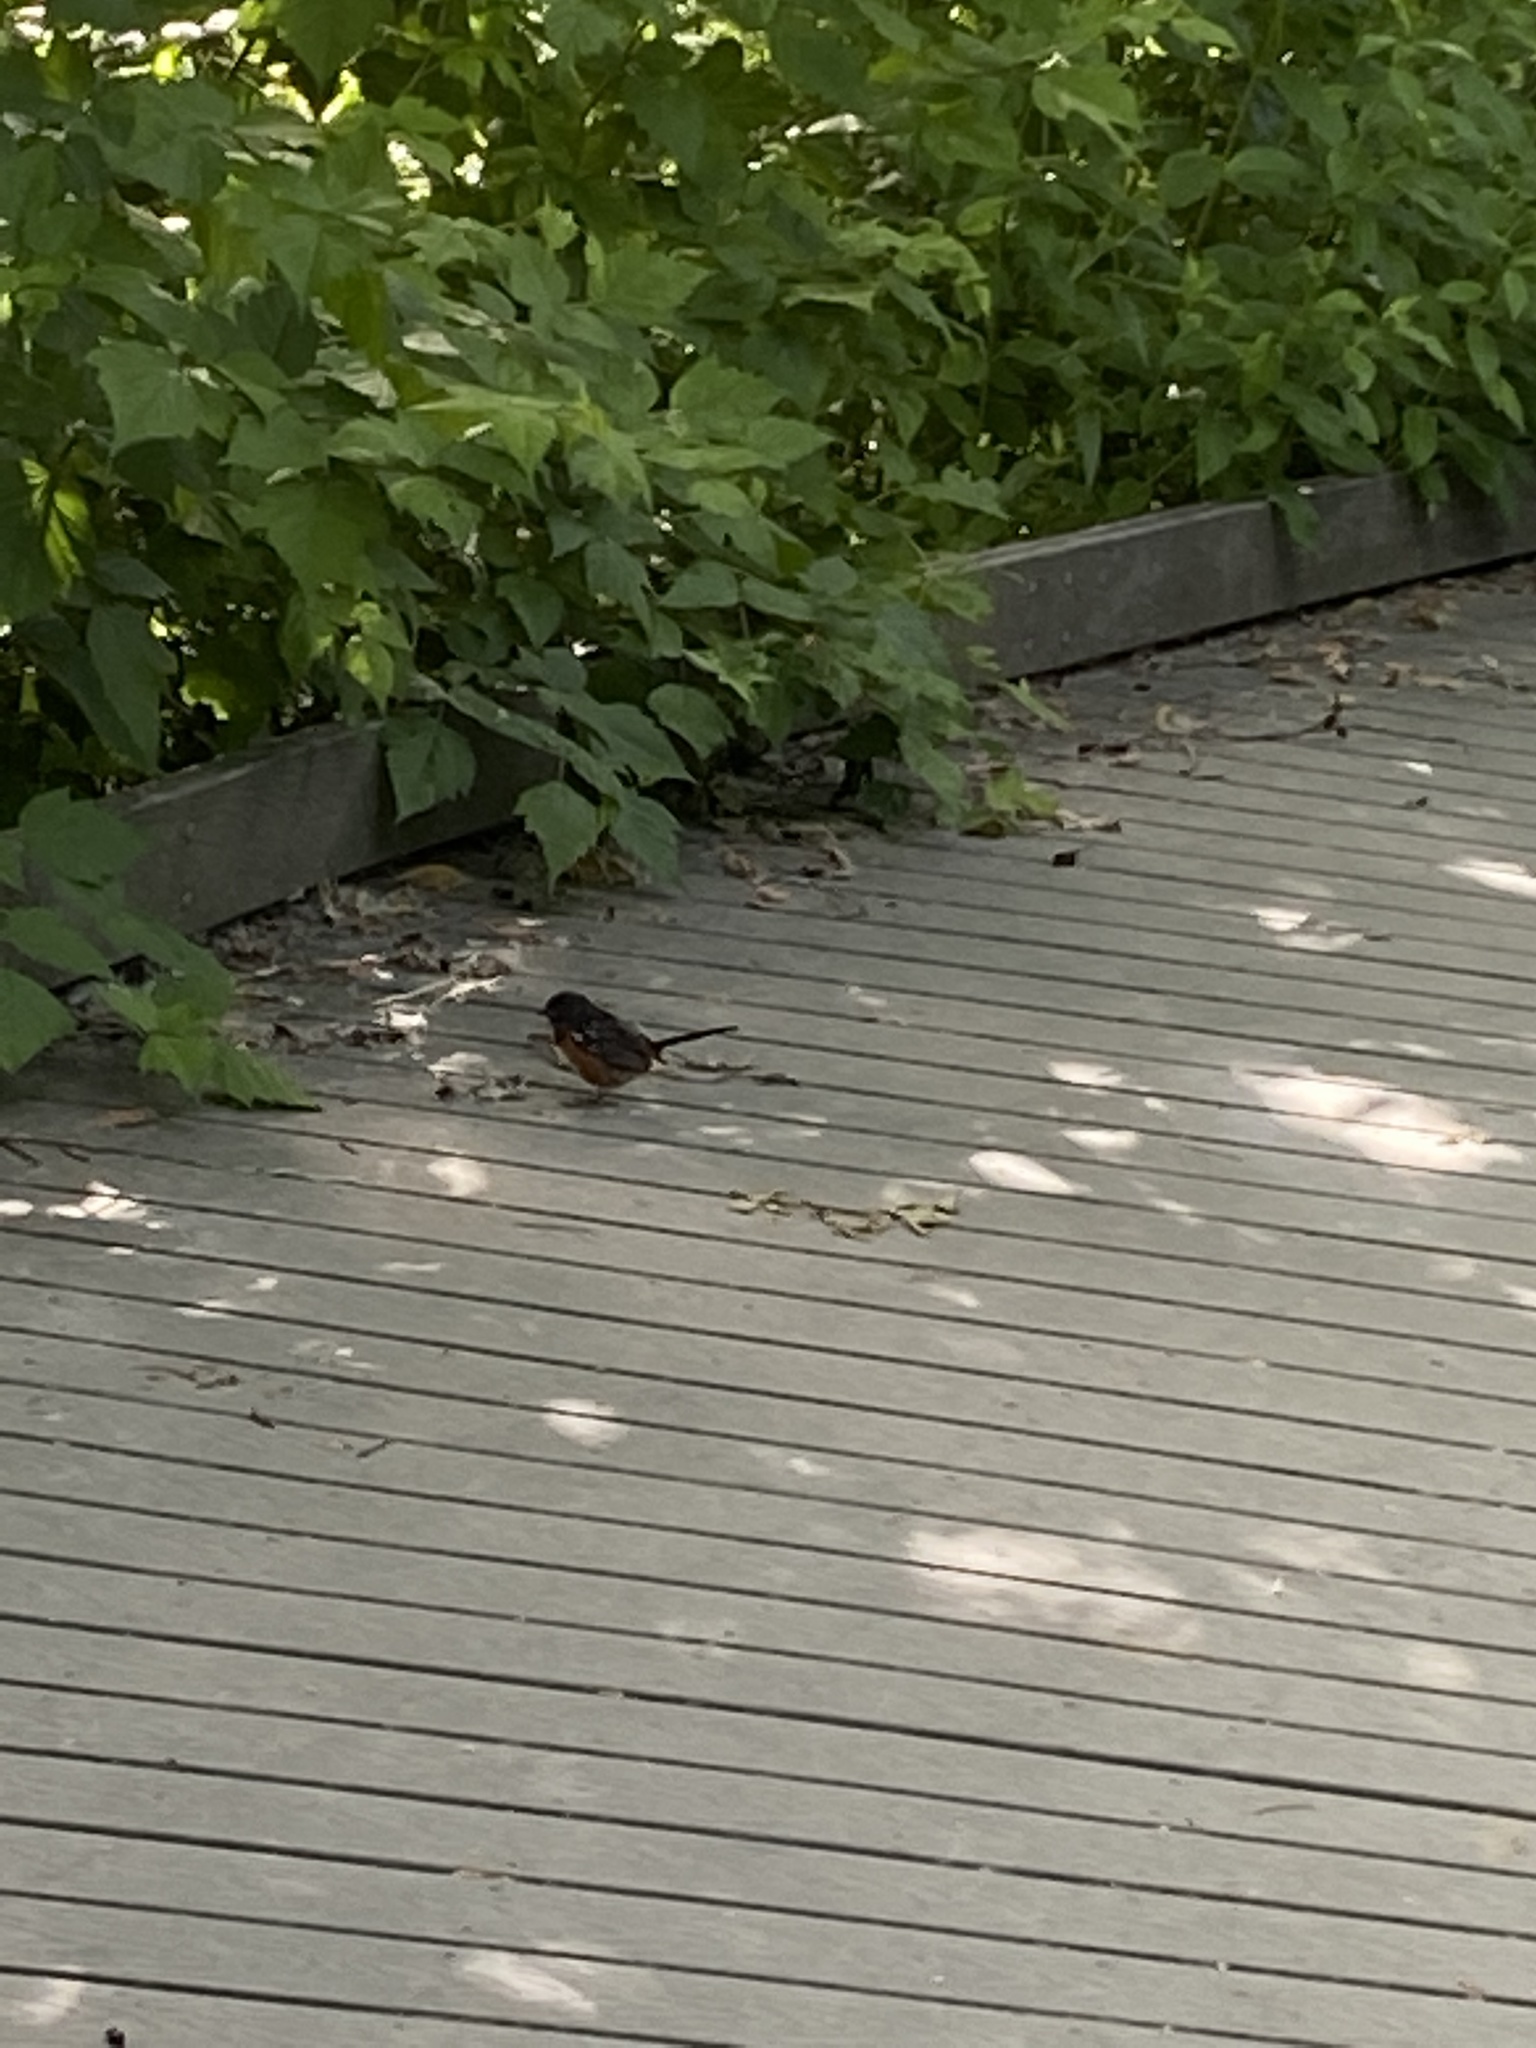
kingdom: Animalia
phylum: Chordata
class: Aves
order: Passeriformes
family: Passerellidae
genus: Pipilo
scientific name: Pipilo maculatus
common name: Spotted towhee
